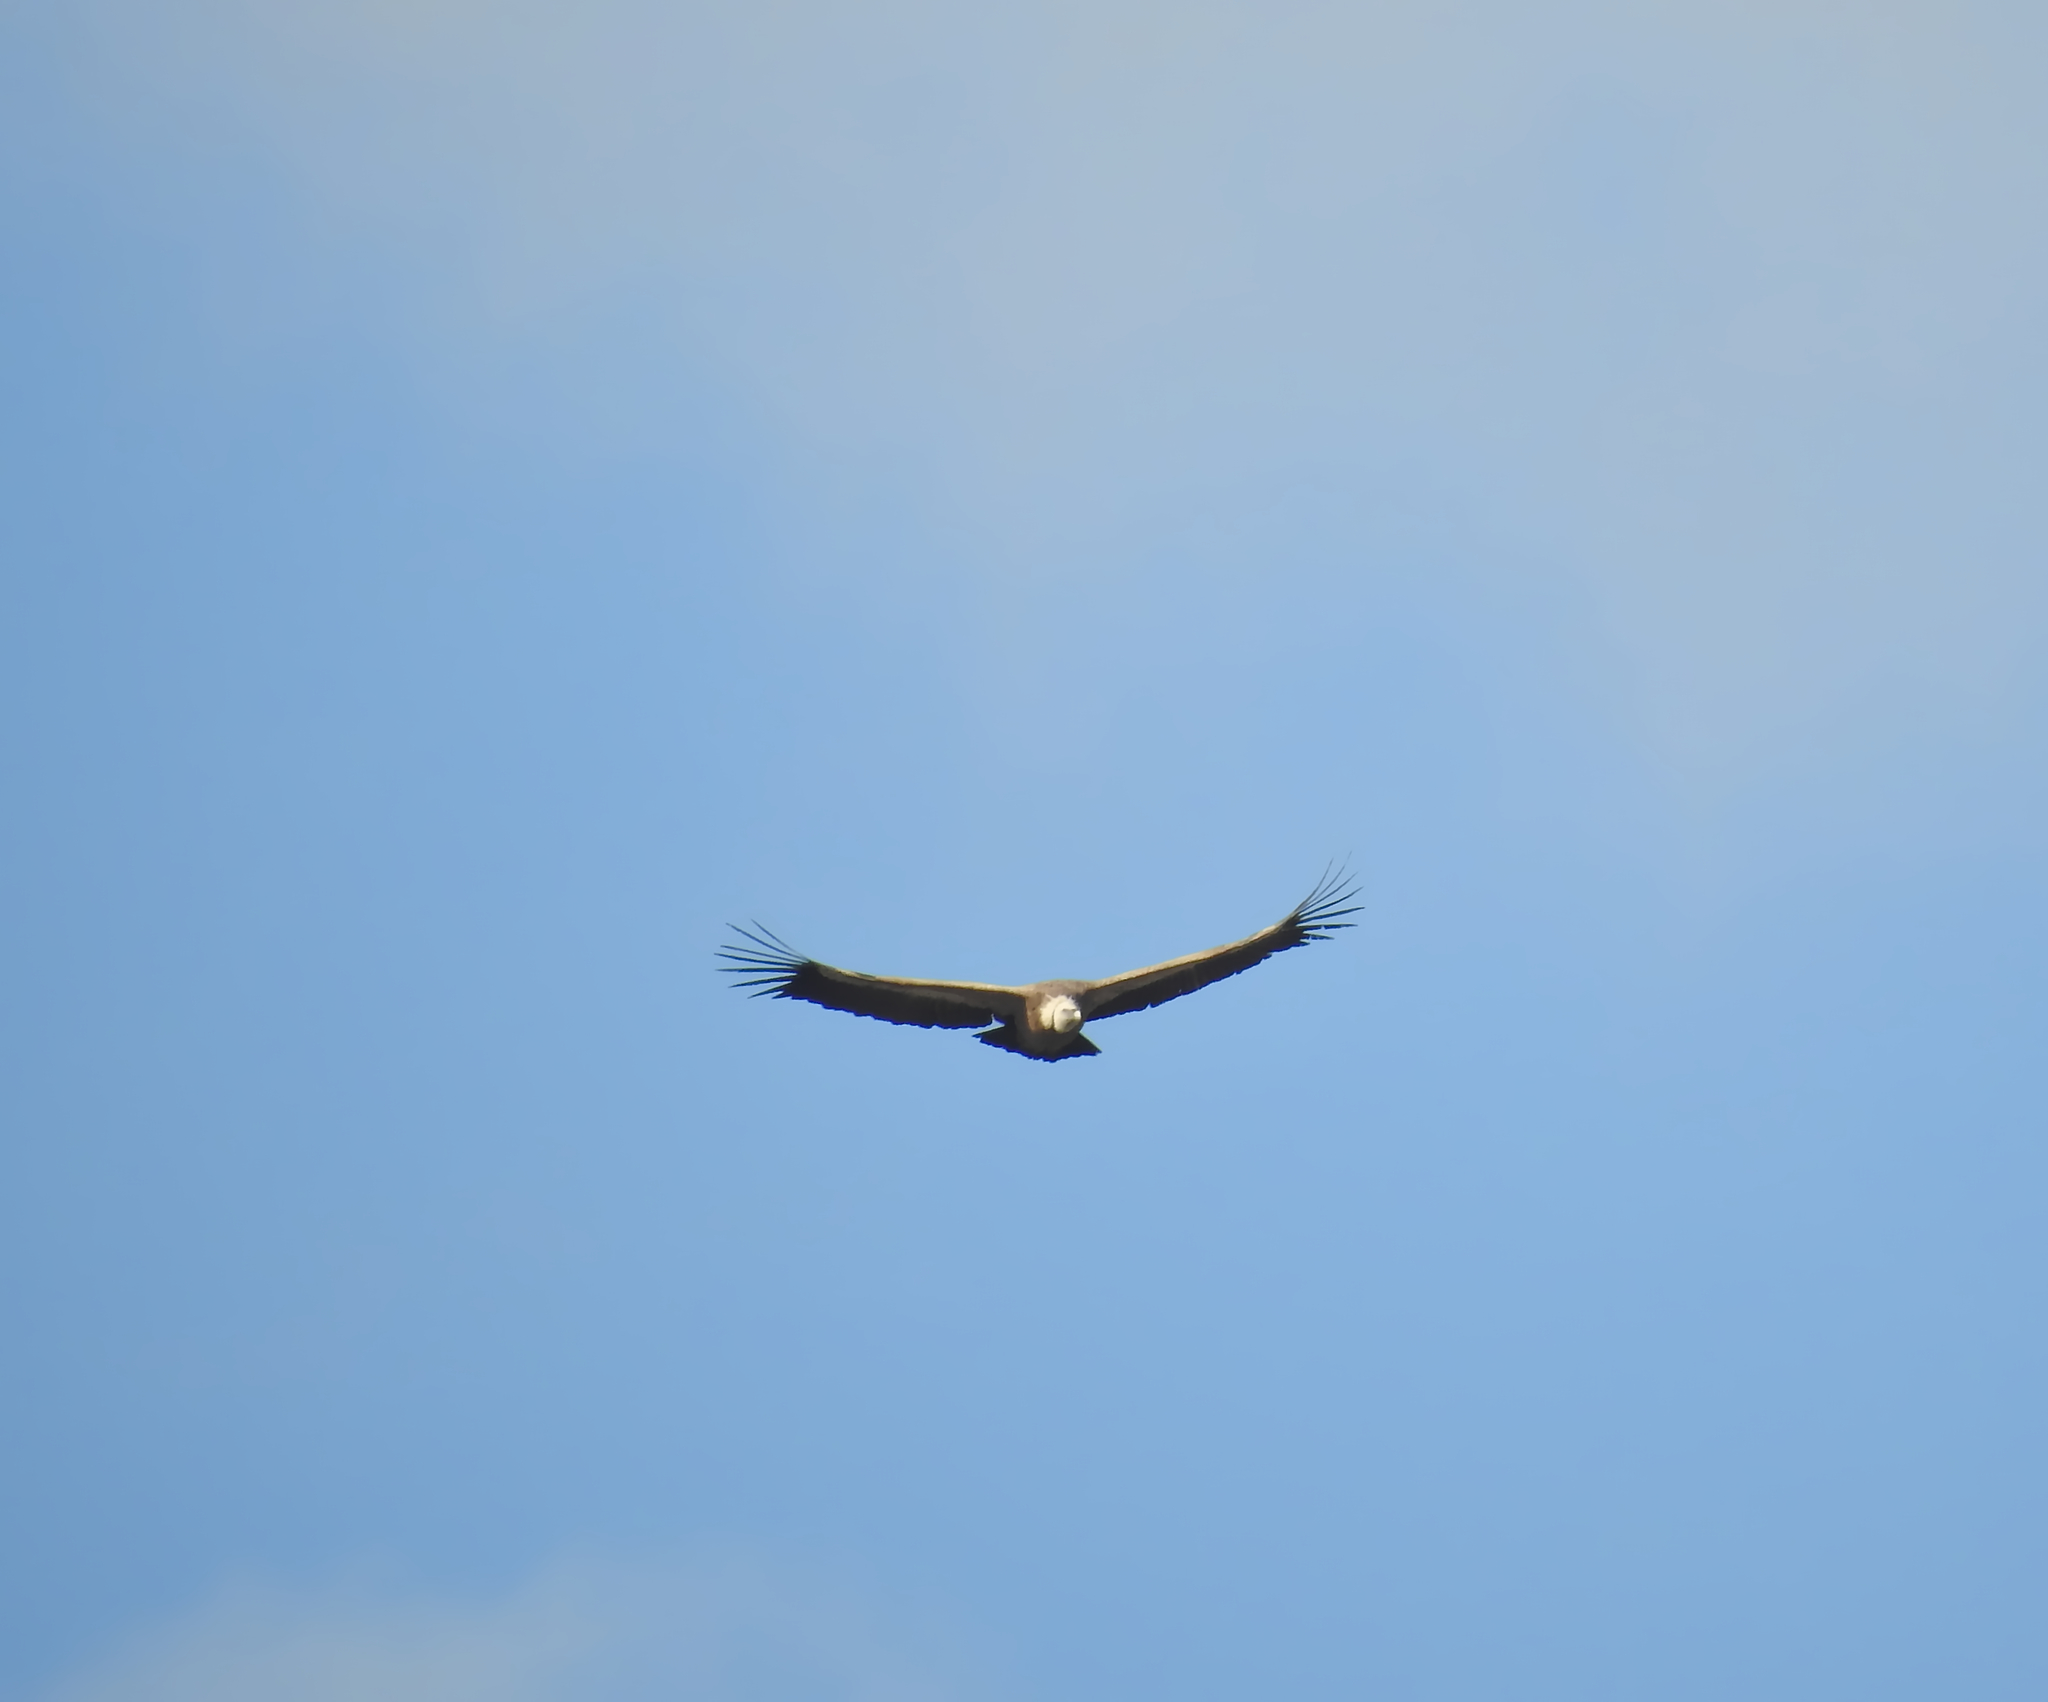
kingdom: Animalia
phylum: Chordata
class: Aves
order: Accipitriformes
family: Accipitridae
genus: Gyps
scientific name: Gyps fulvus
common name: Griffon vulture
